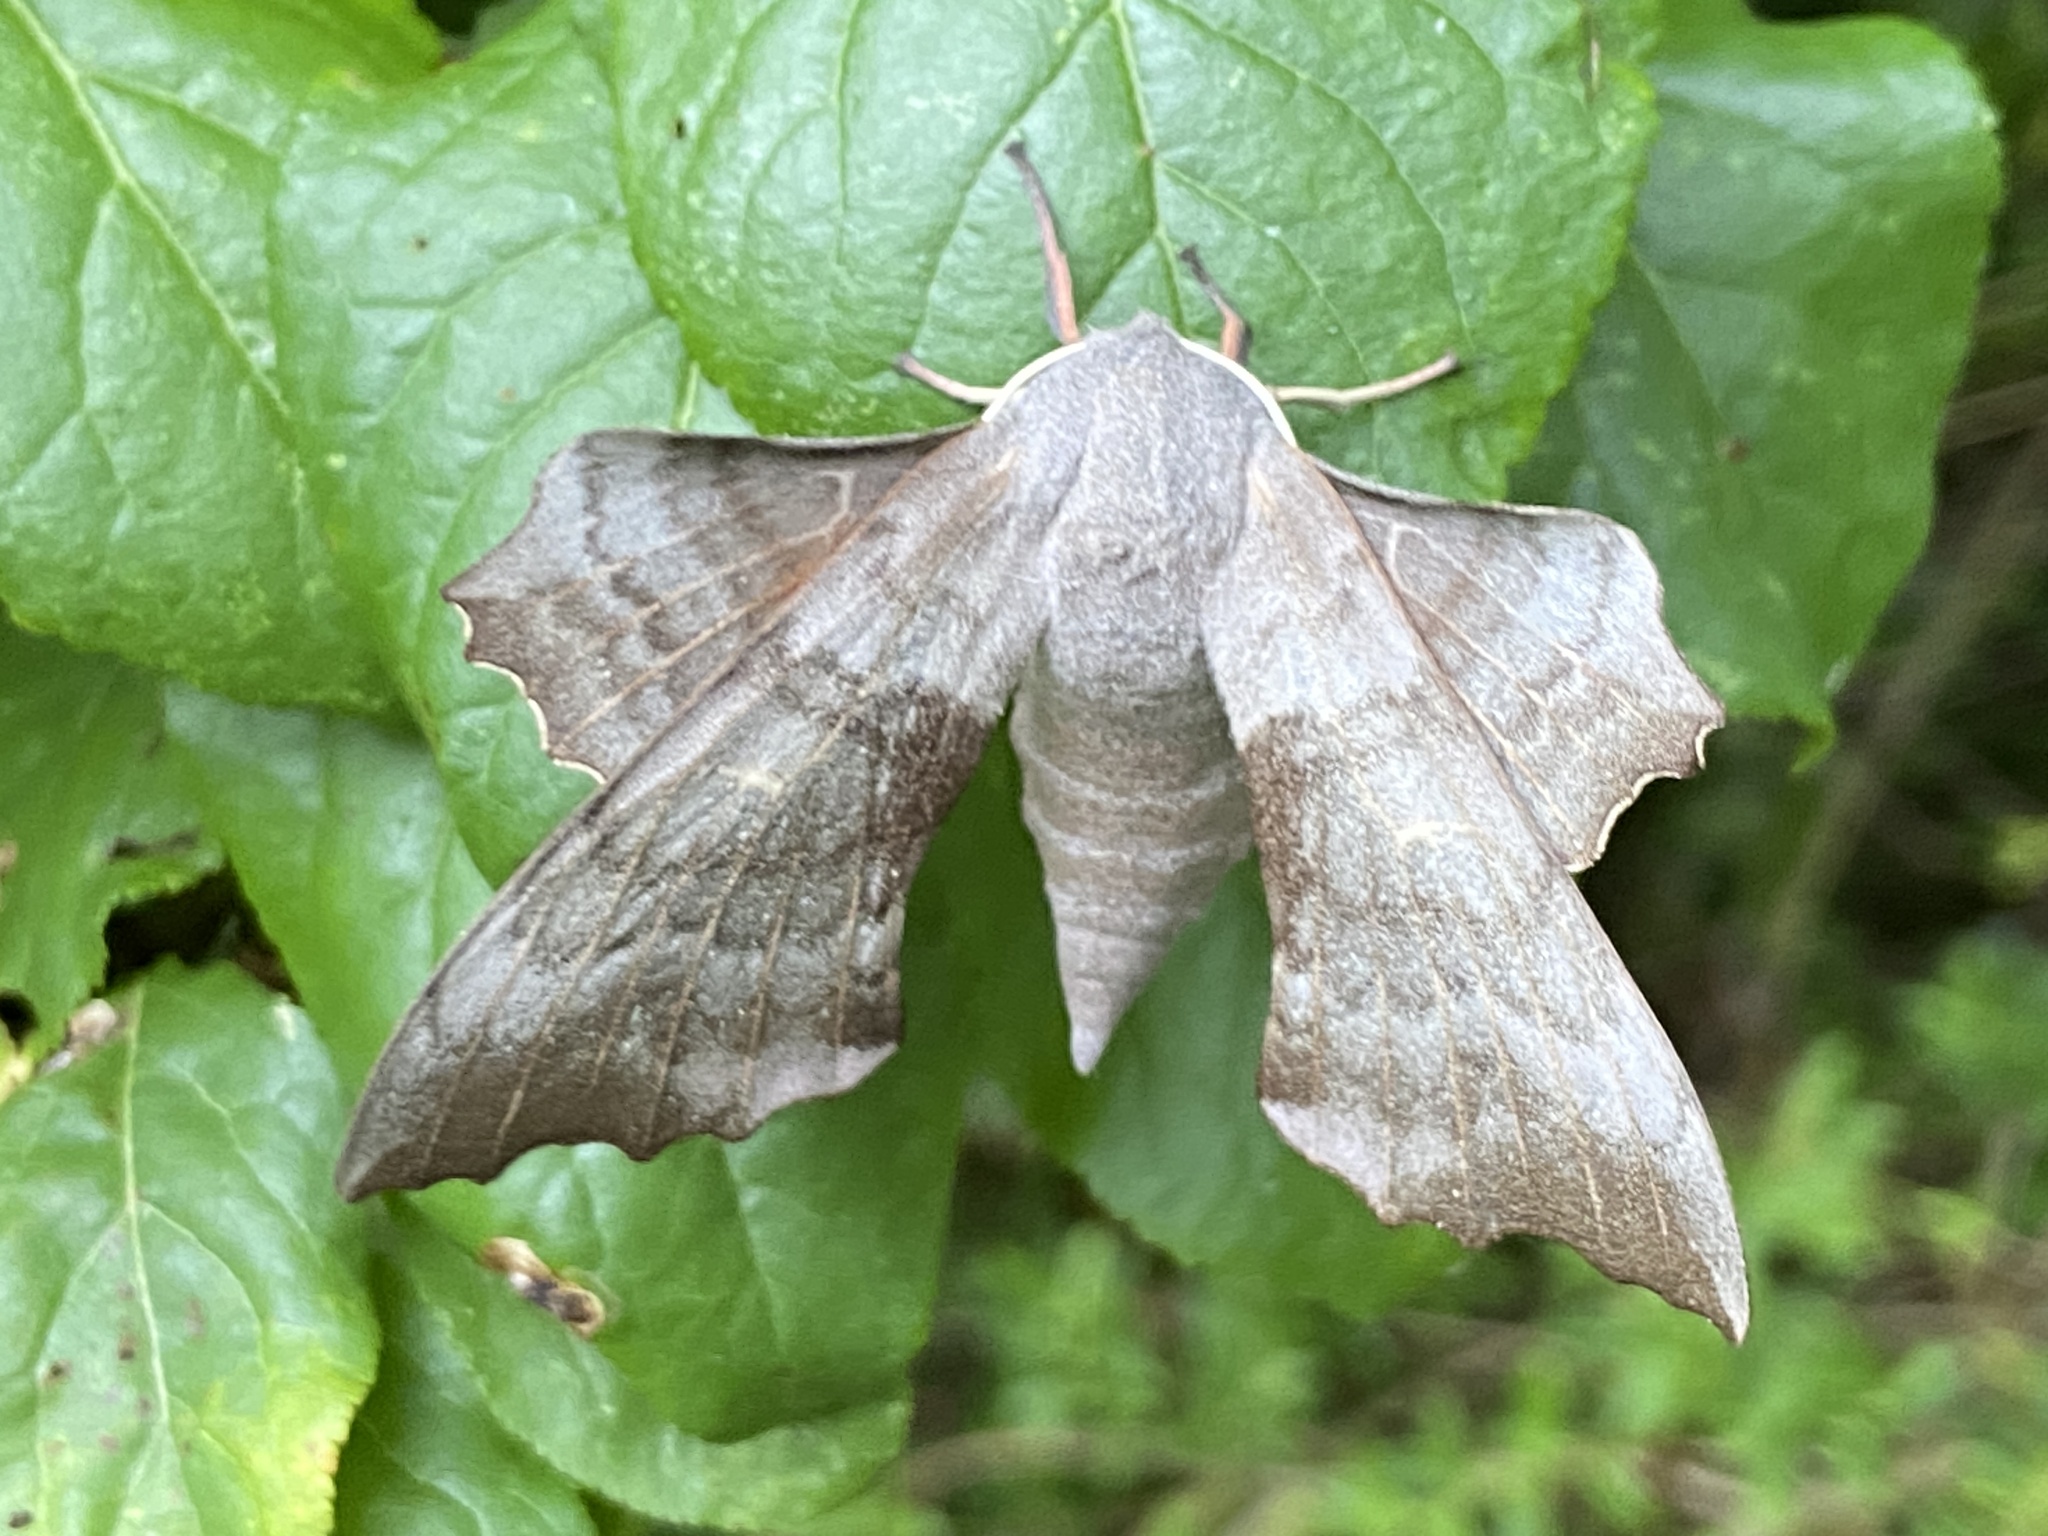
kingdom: Animalia
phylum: Arthropoda
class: Insecta
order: Lepidoptera
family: Sphingidae
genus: Laothoe
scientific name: Laothoe populi
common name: Poplar hawk-moth
